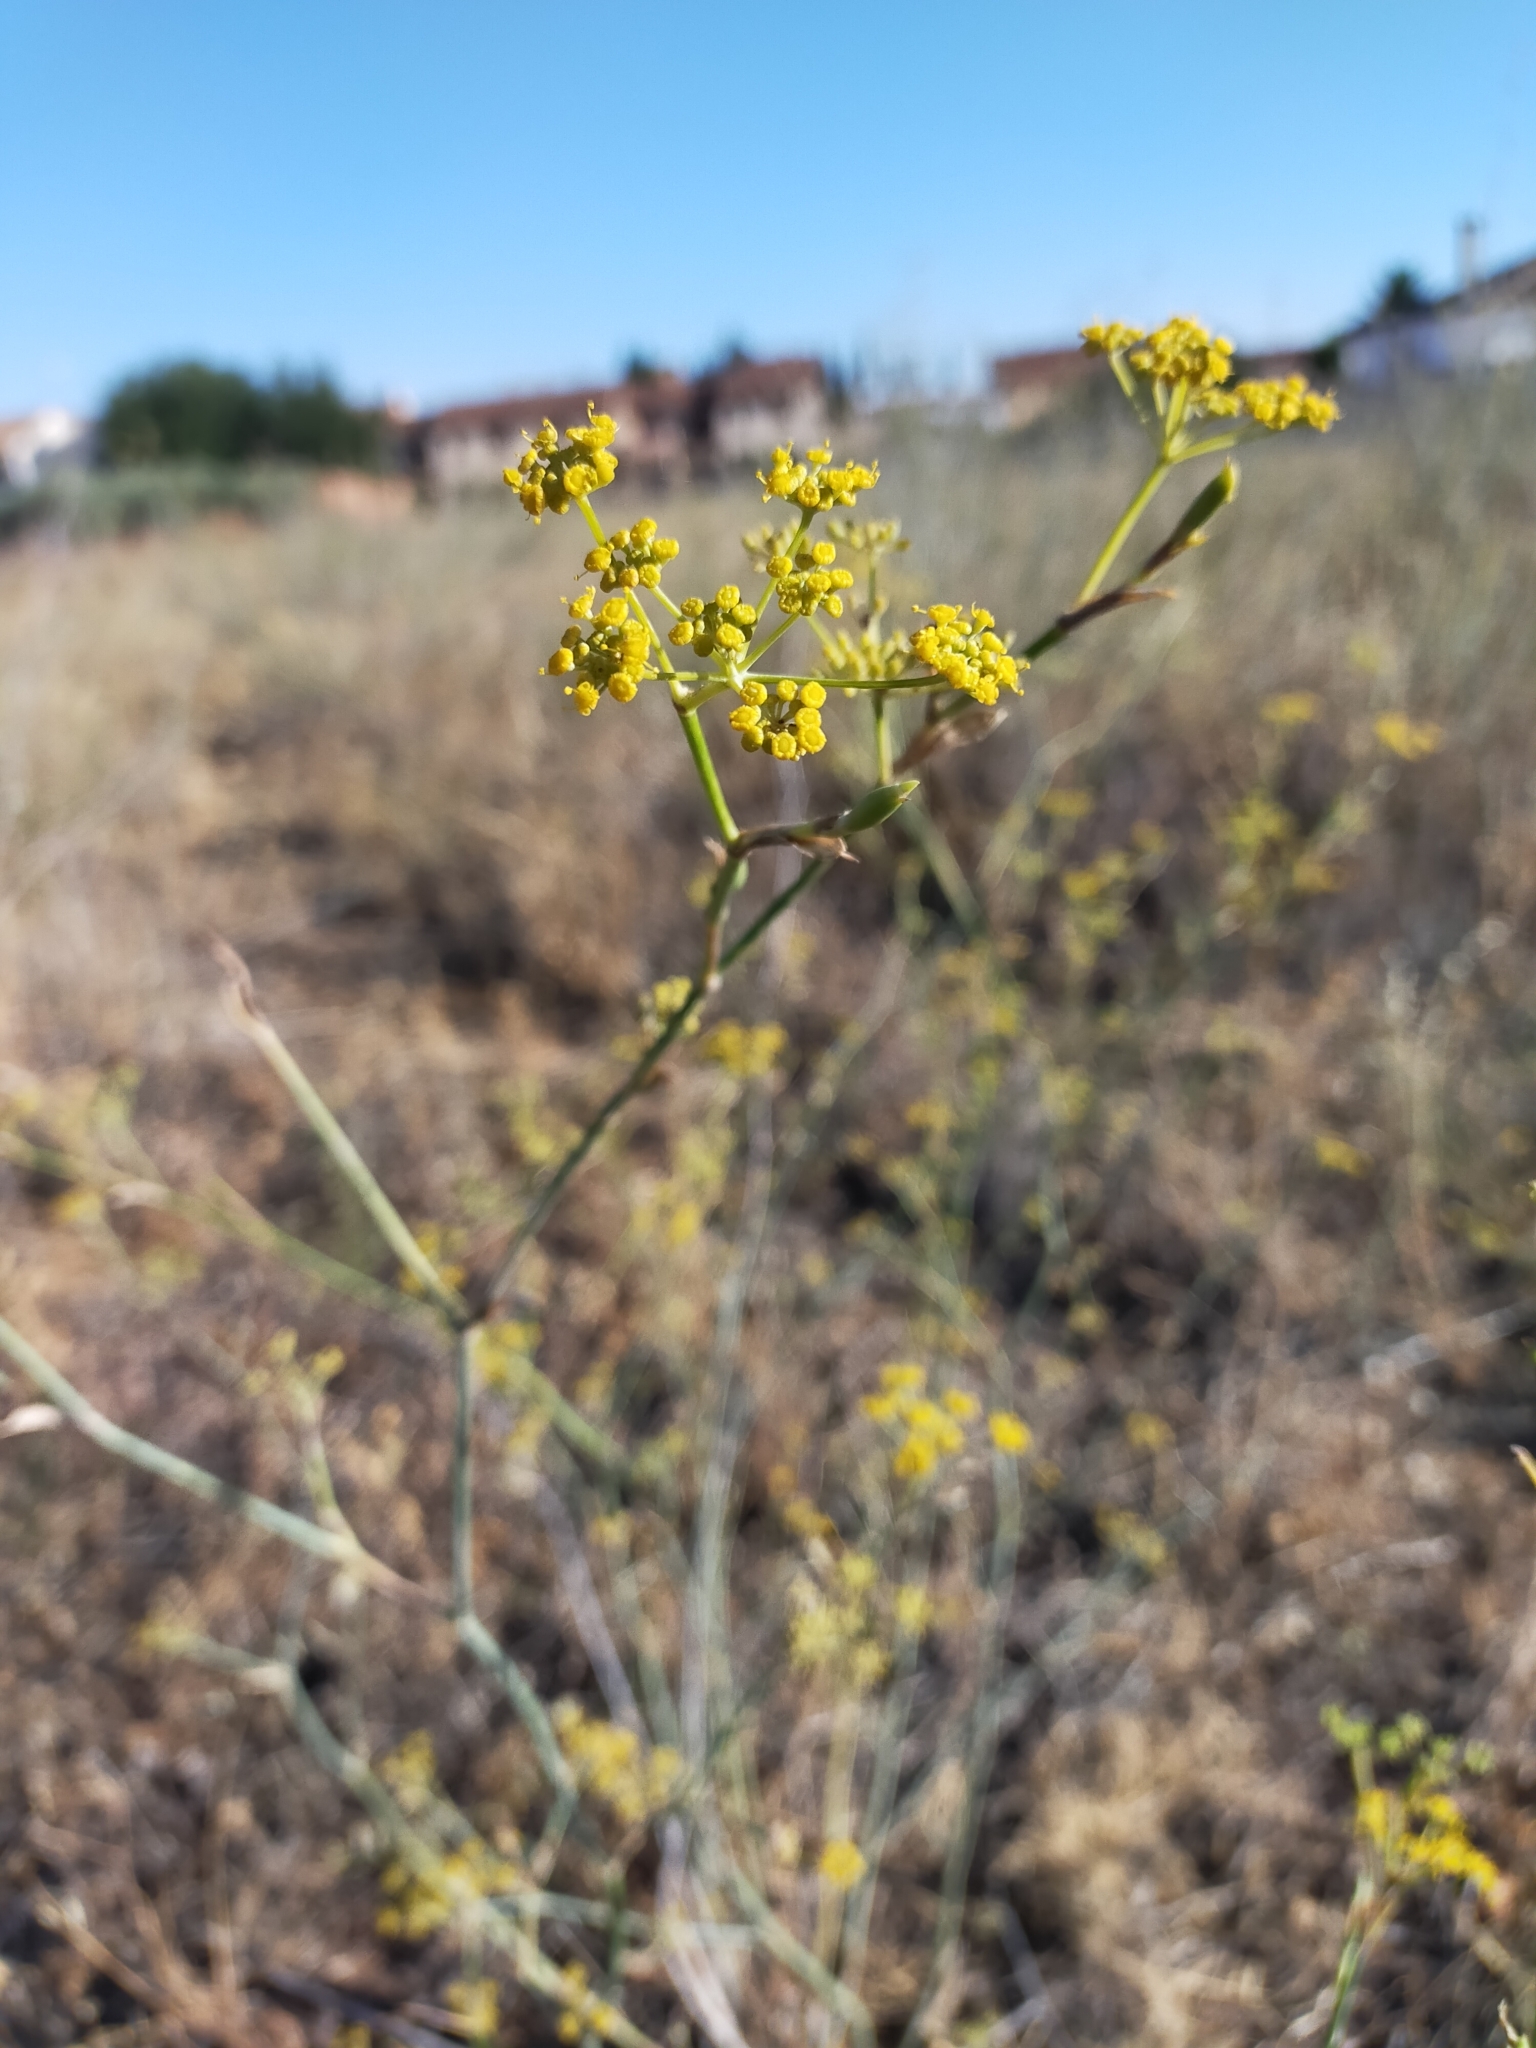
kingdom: Plantae
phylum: Tracheophyta
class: Magnoliopsida
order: Apiales
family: Apiaceae
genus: Foeniculum
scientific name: Foeniculum vulgare
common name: Fennel
